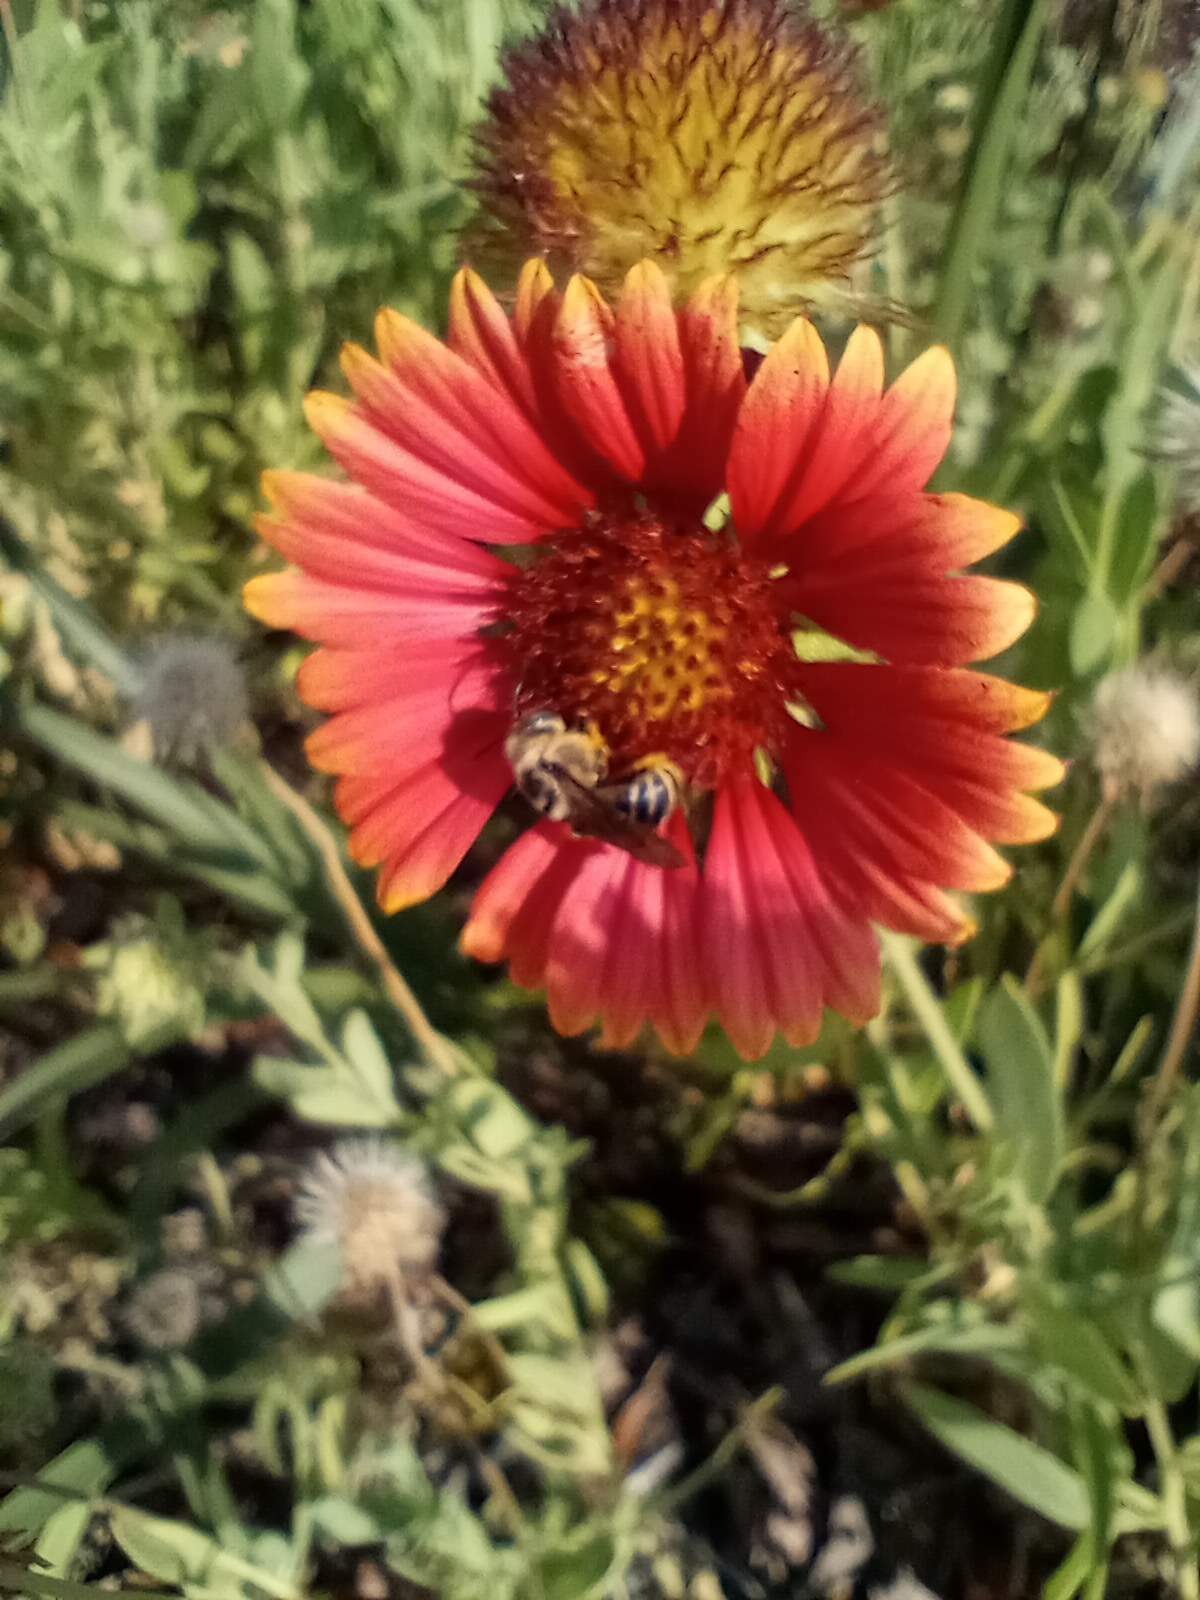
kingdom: Plantae
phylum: Tracheophyta
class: Magnoliopsida
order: Asterales
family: Asteraceae
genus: Gaillardia
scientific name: Gaillardia pulchella
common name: Firewheel
